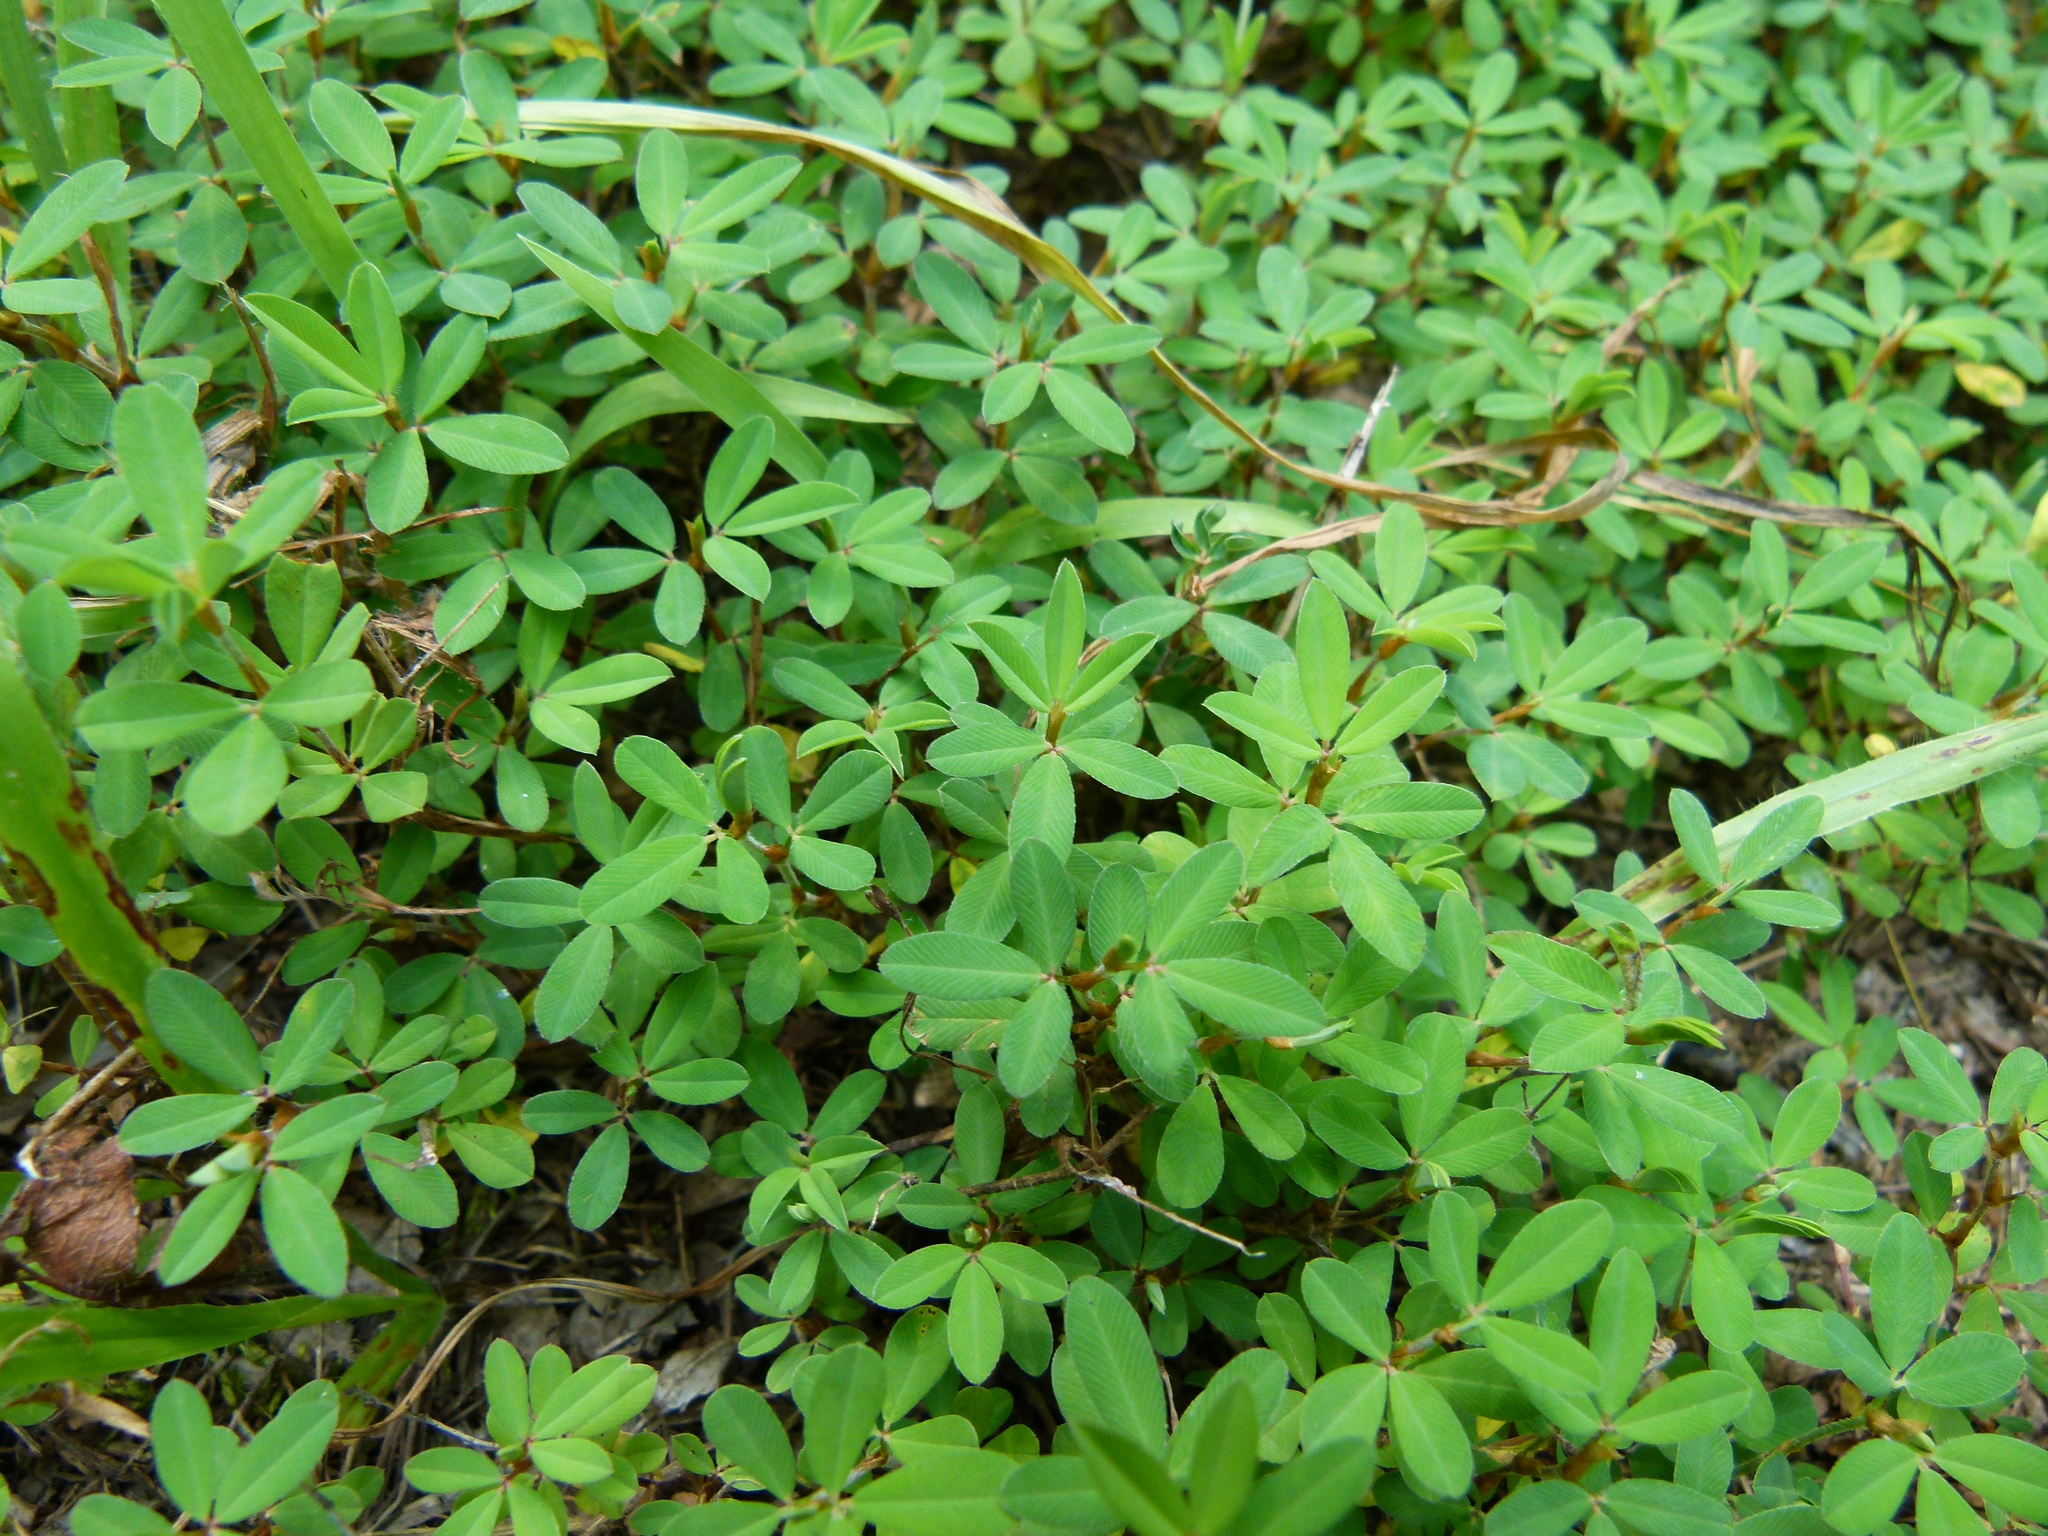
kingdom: Plantae
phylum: Tracheophyta
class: Magnoliopsida
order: Fabales
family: Fabaceae
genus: Kummerowia
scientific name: Kummerowia striata
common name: Japanese clover
